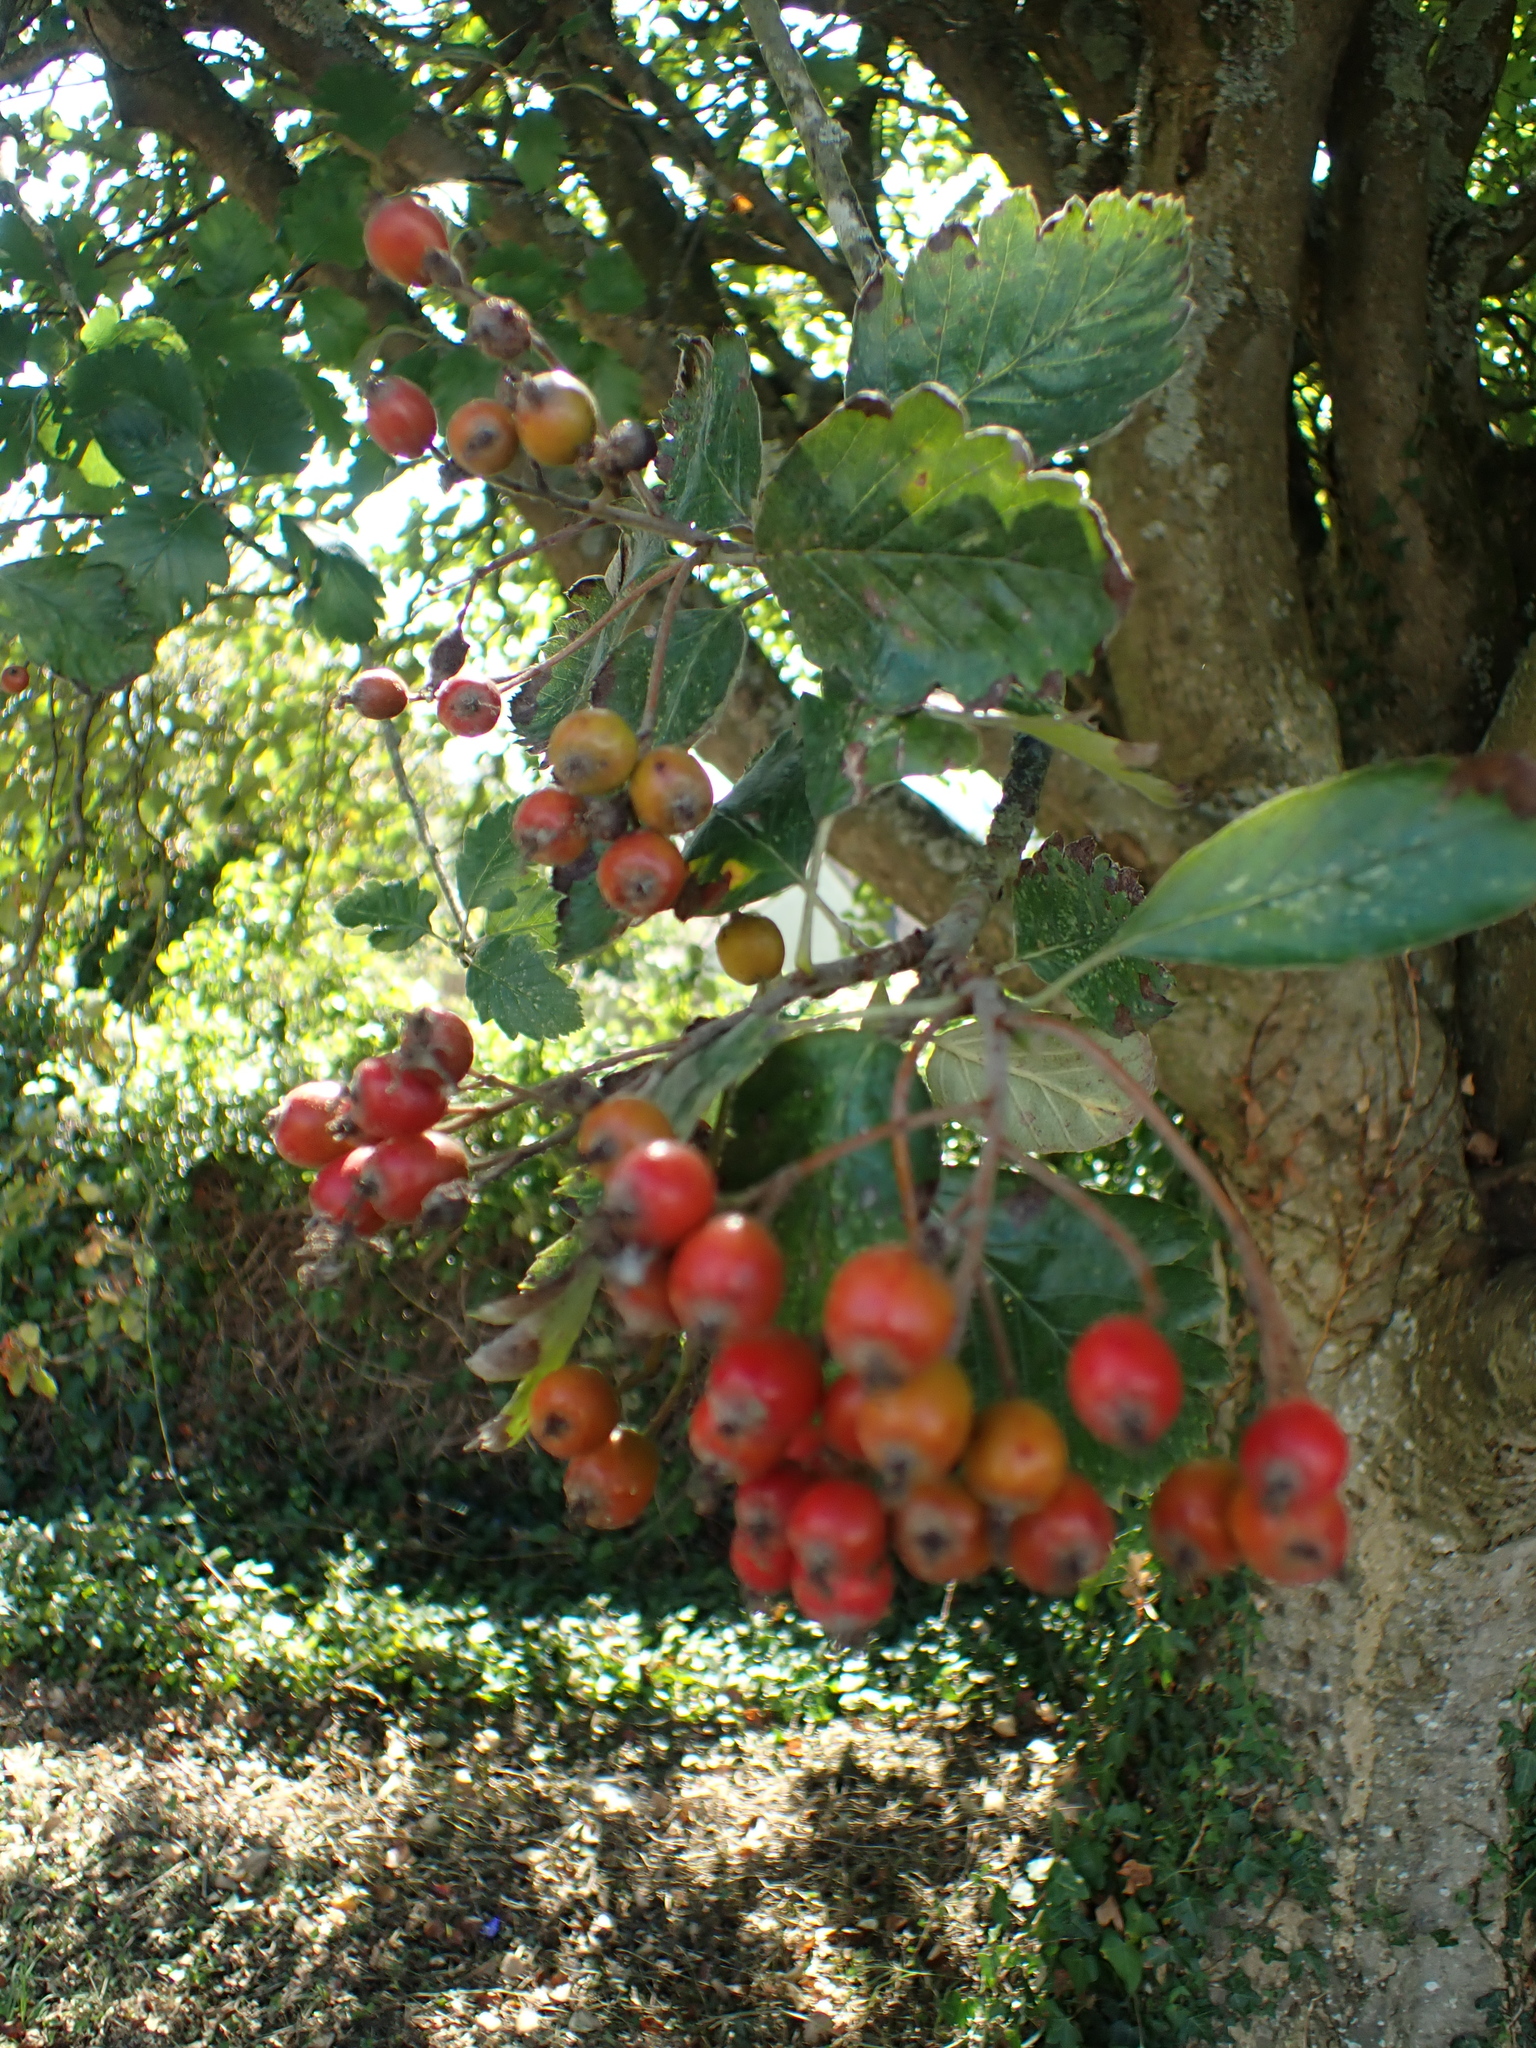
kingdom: Plantae
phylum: Tracheophyta
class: Magnoliopsida
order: Rosales
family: Rosaceae
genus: Scandosorbus
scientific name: Scandosorbus intermedia
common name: Swedish whitebeam
